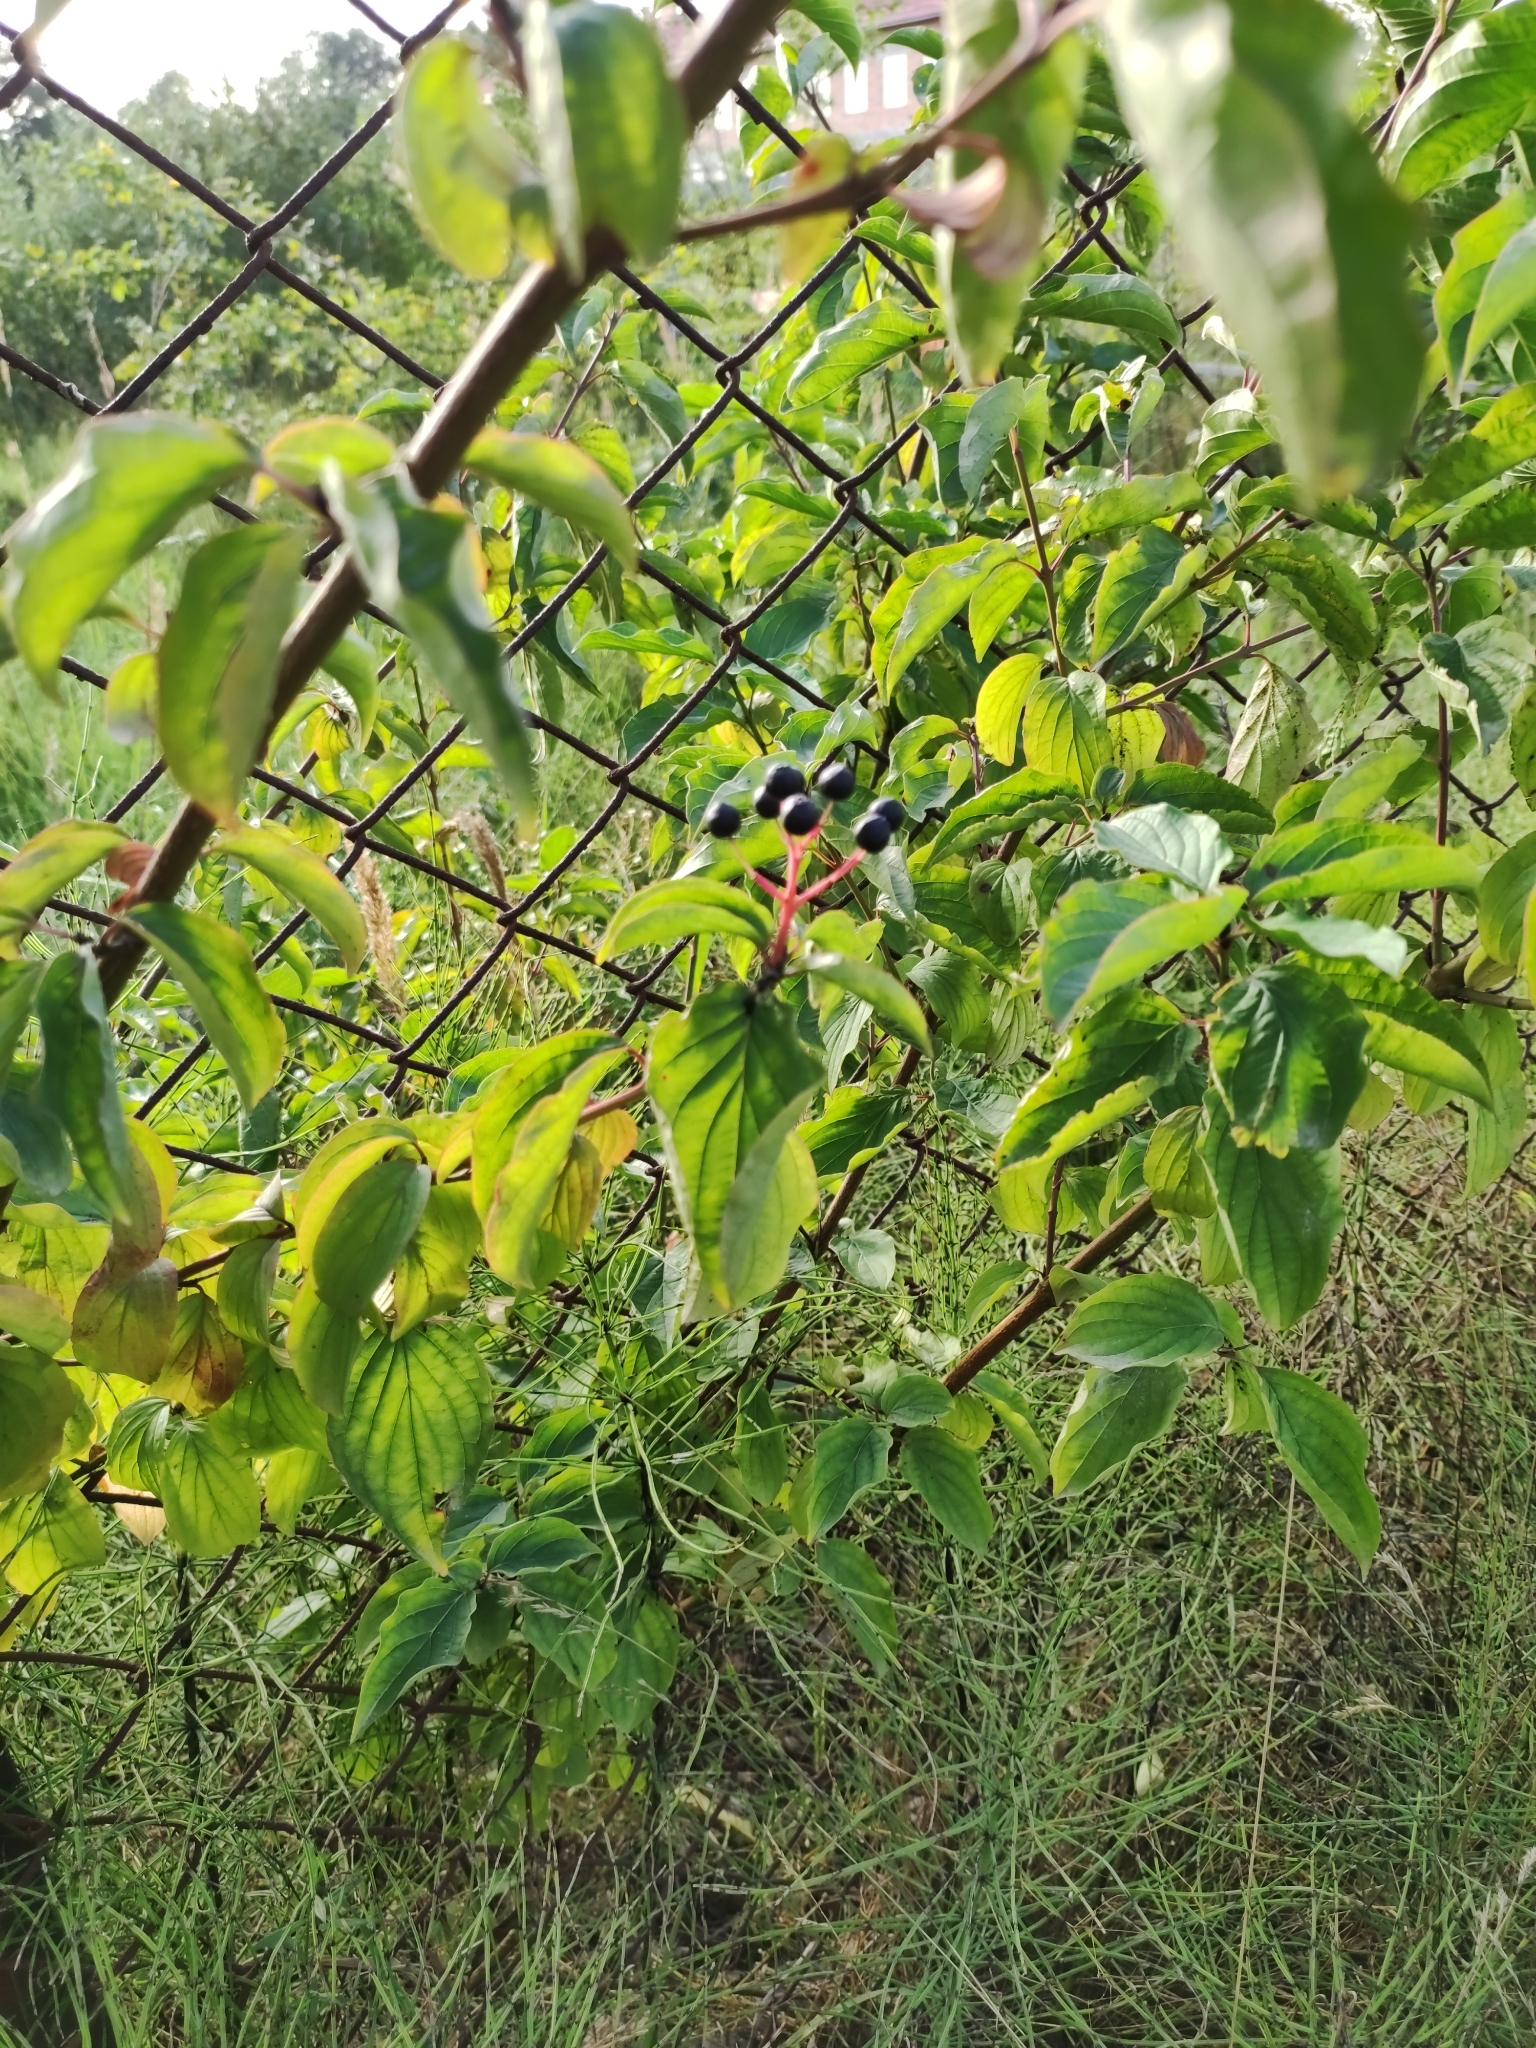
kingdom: Plantae
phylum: Tracheophyta
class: Magnoliopsida
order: Cornales
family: Cornaceae
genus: Cornus
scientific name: Cornus sanguinea
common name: Dogwood
